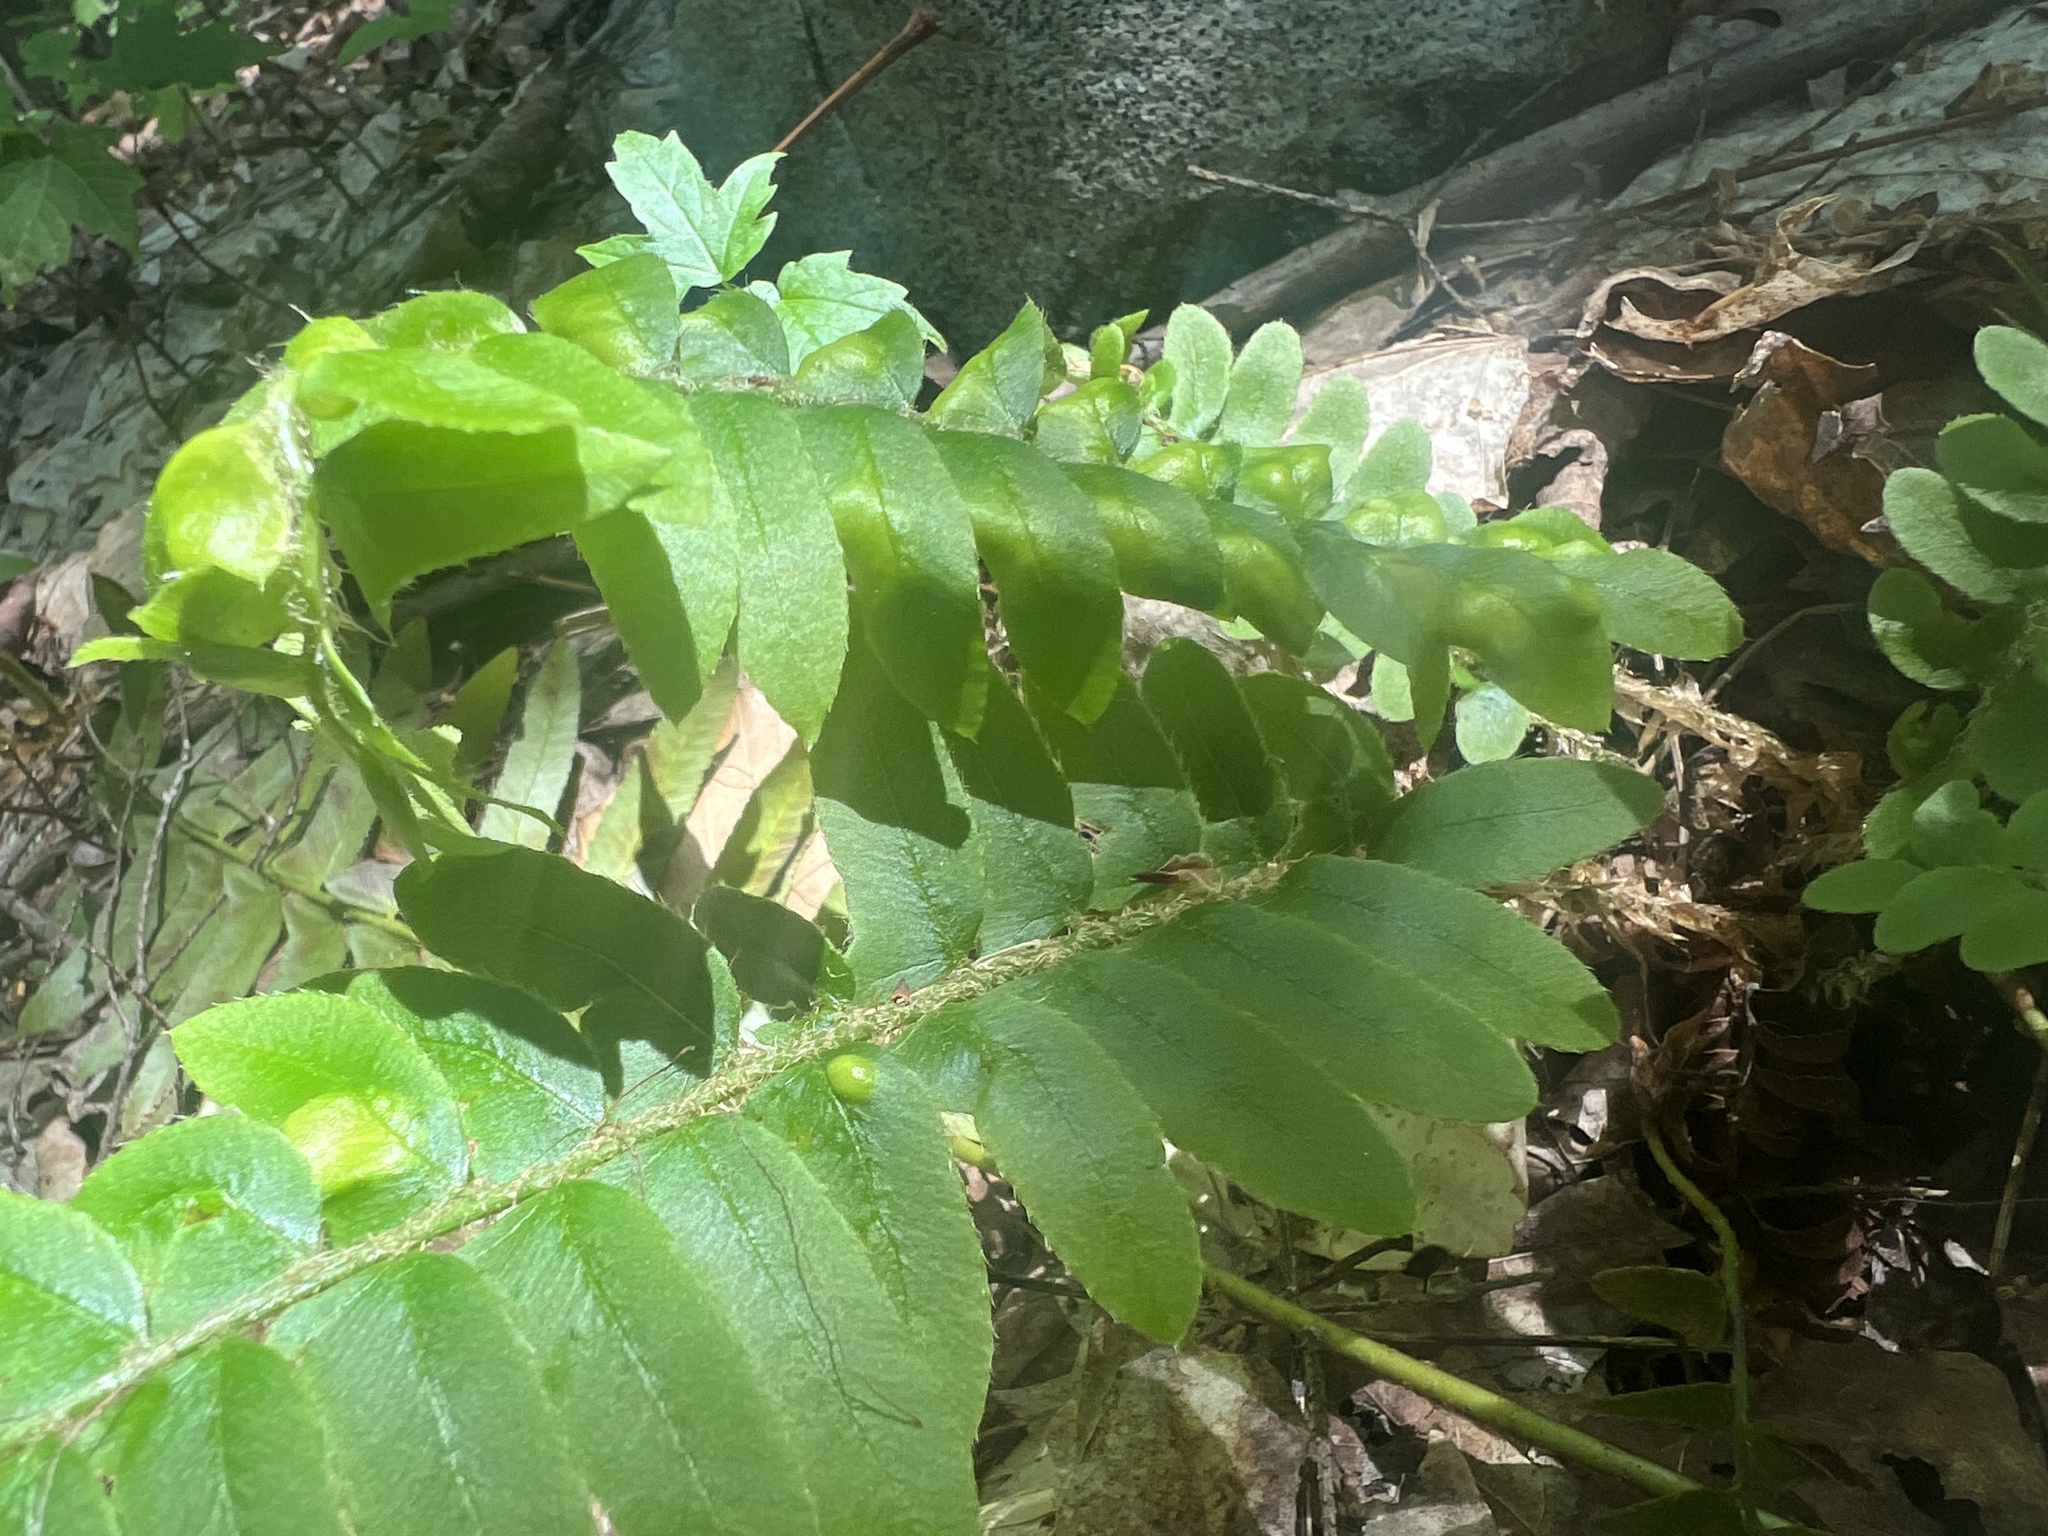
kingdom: Fungi
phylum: Ascomycota
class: Taphrinomycetes
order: Taphrinales
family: Taphrinaceae
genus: Taphrina
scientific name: Taphrina polystichi
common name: Christmas fern leaf curl
